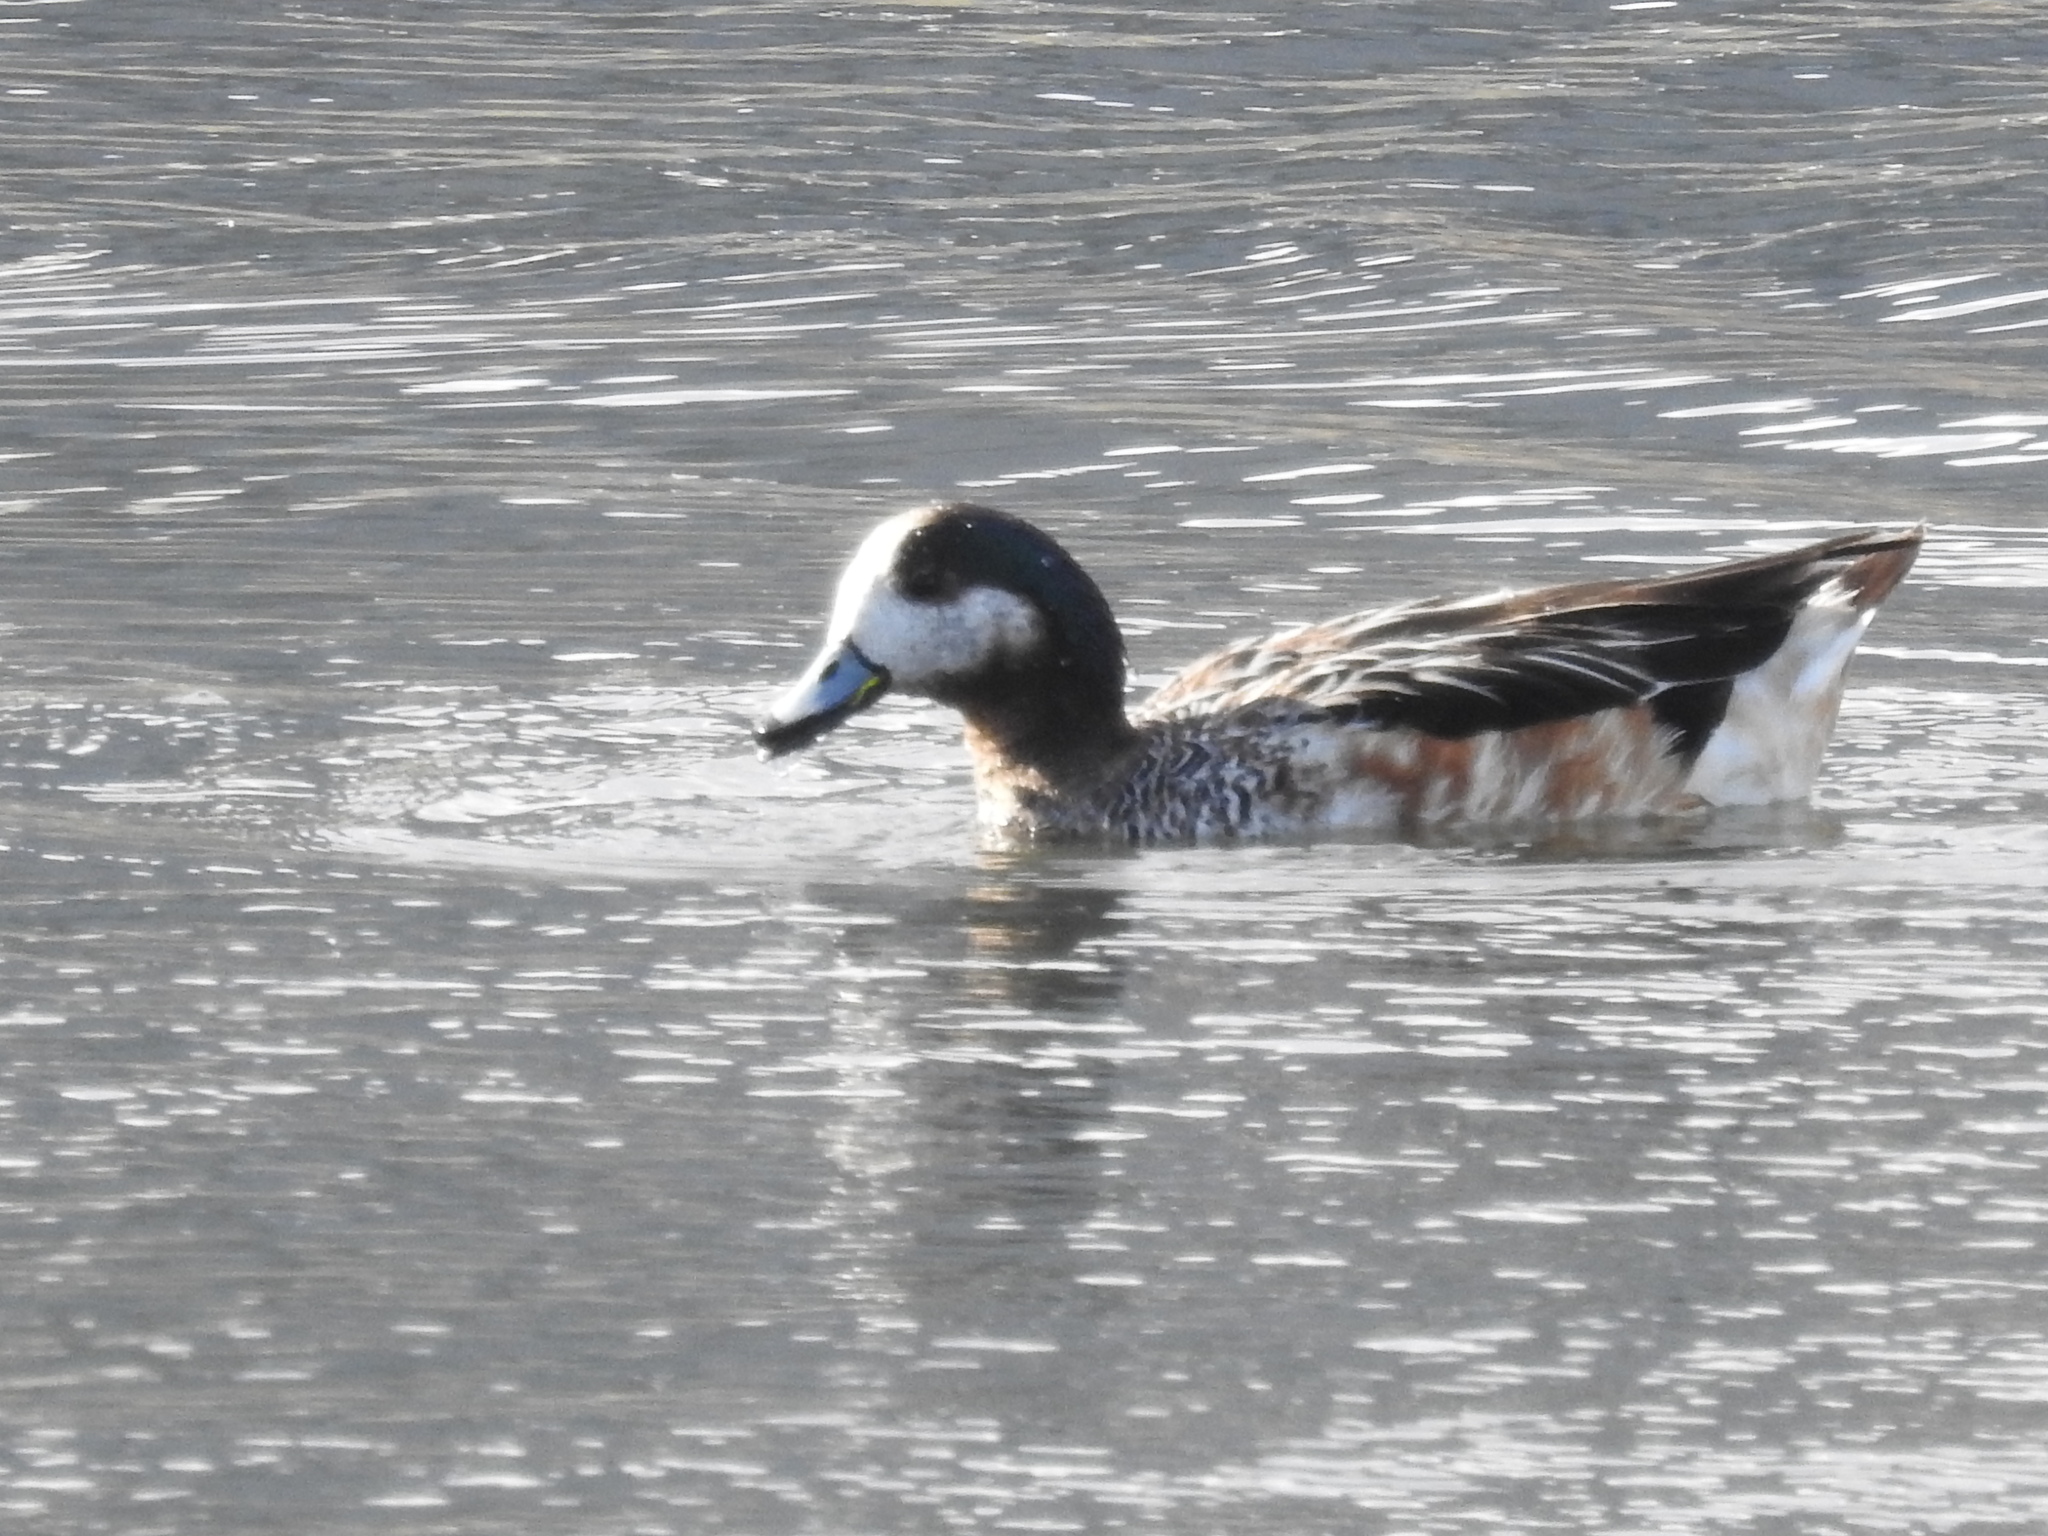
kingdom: Animalia
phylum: Chordata
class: Aves
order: Anseriformes
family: Anatidae
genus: Mareca
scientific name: Mareca sibilatrix
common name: Chiloe wigeon
